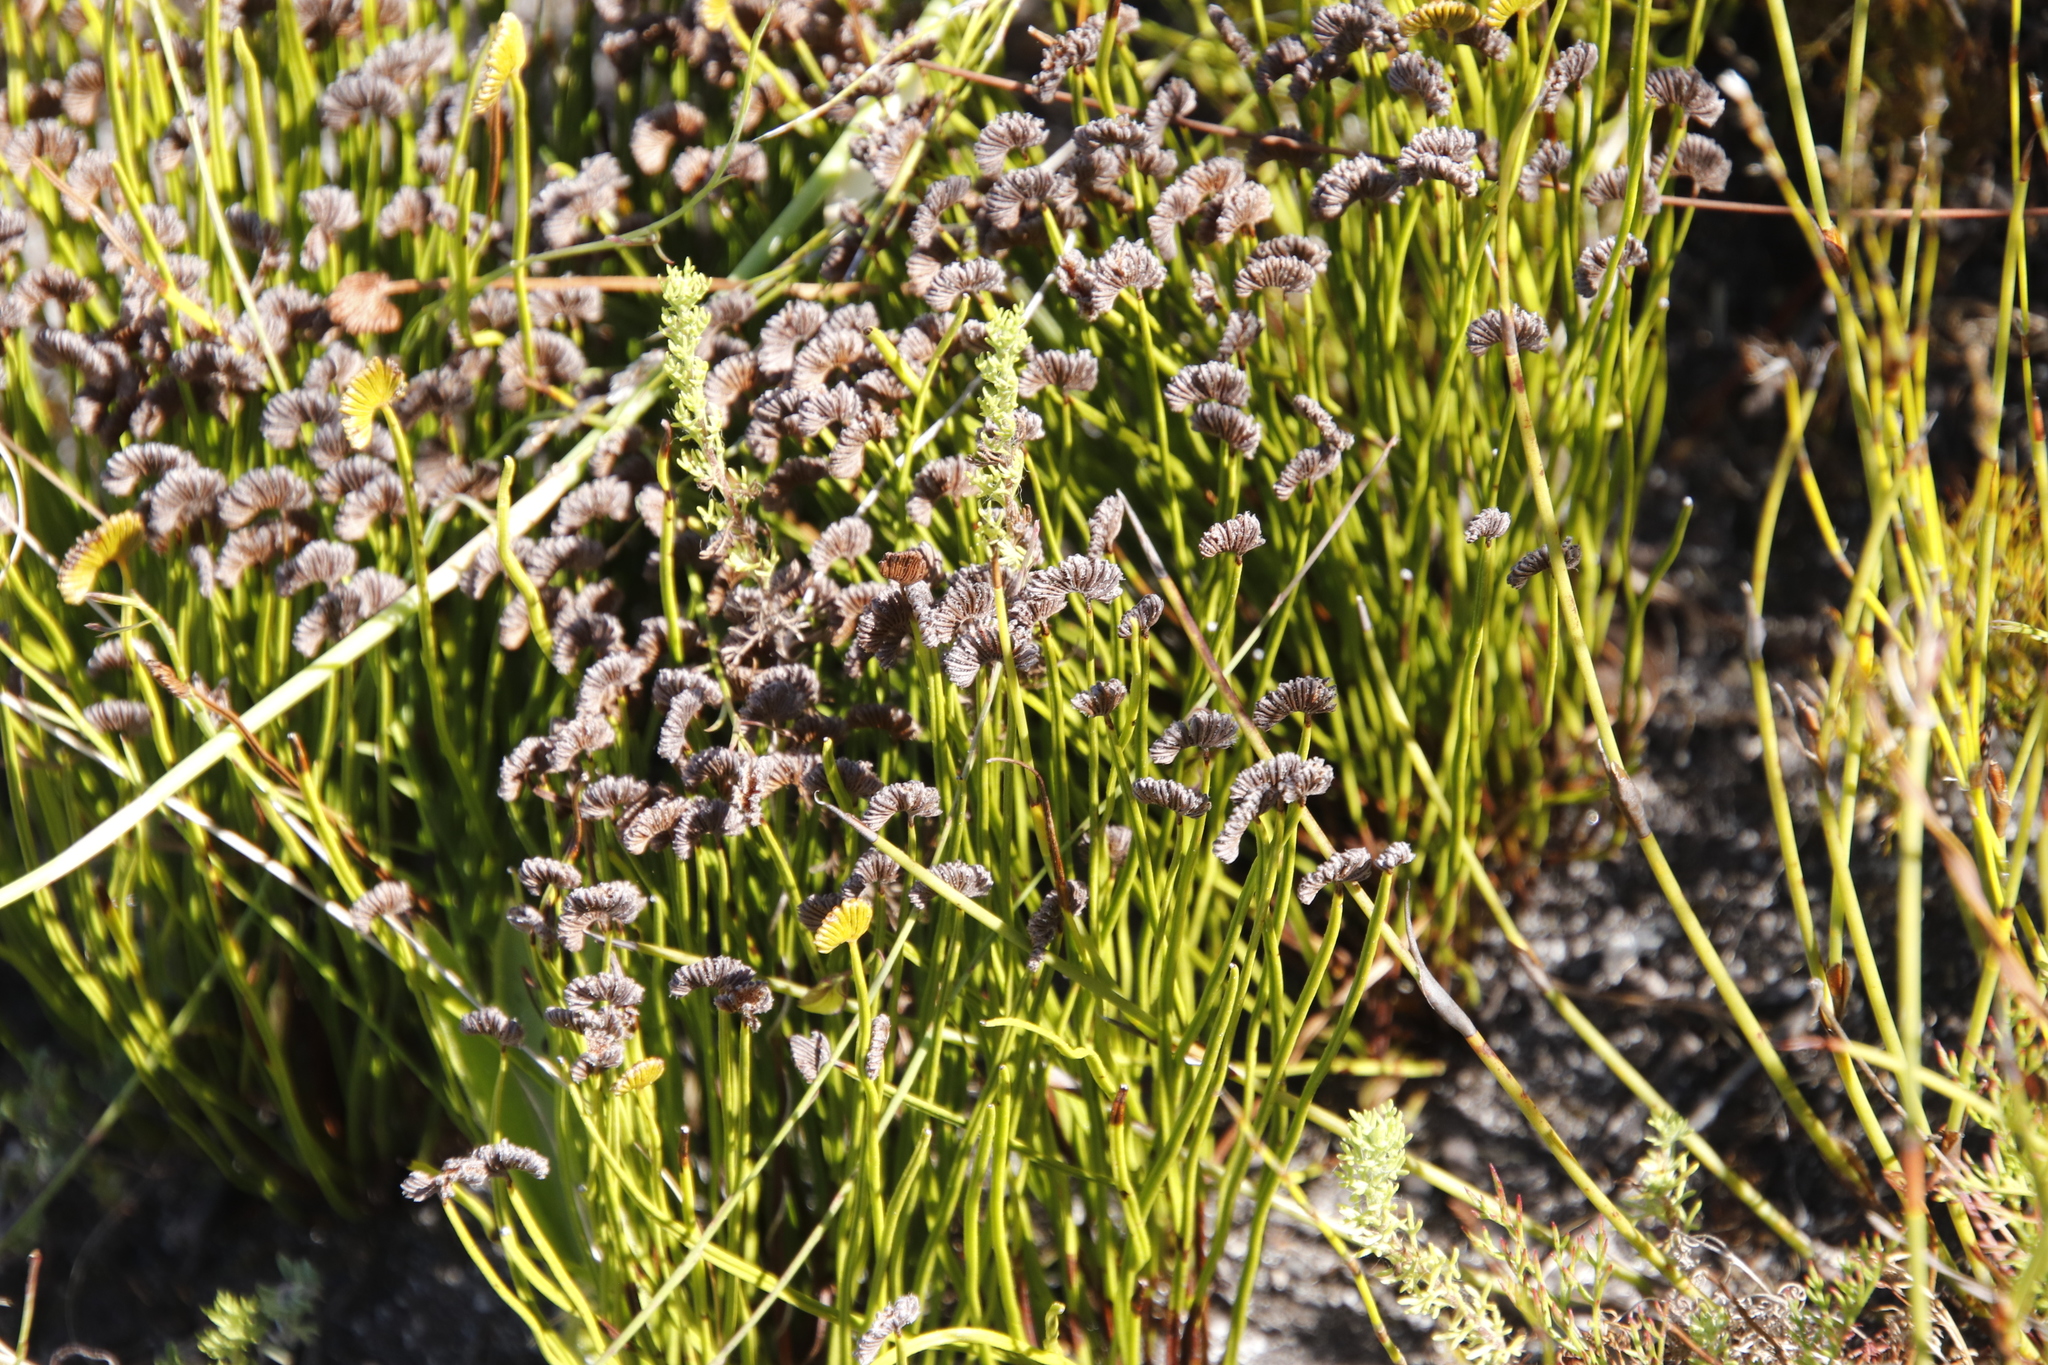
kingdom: Plantae
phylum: Tracheophyta
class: Polypodiopsida
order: Schizaeales
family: Schizaeaceae
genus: Schizaea
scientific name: Schizaea pectinata
